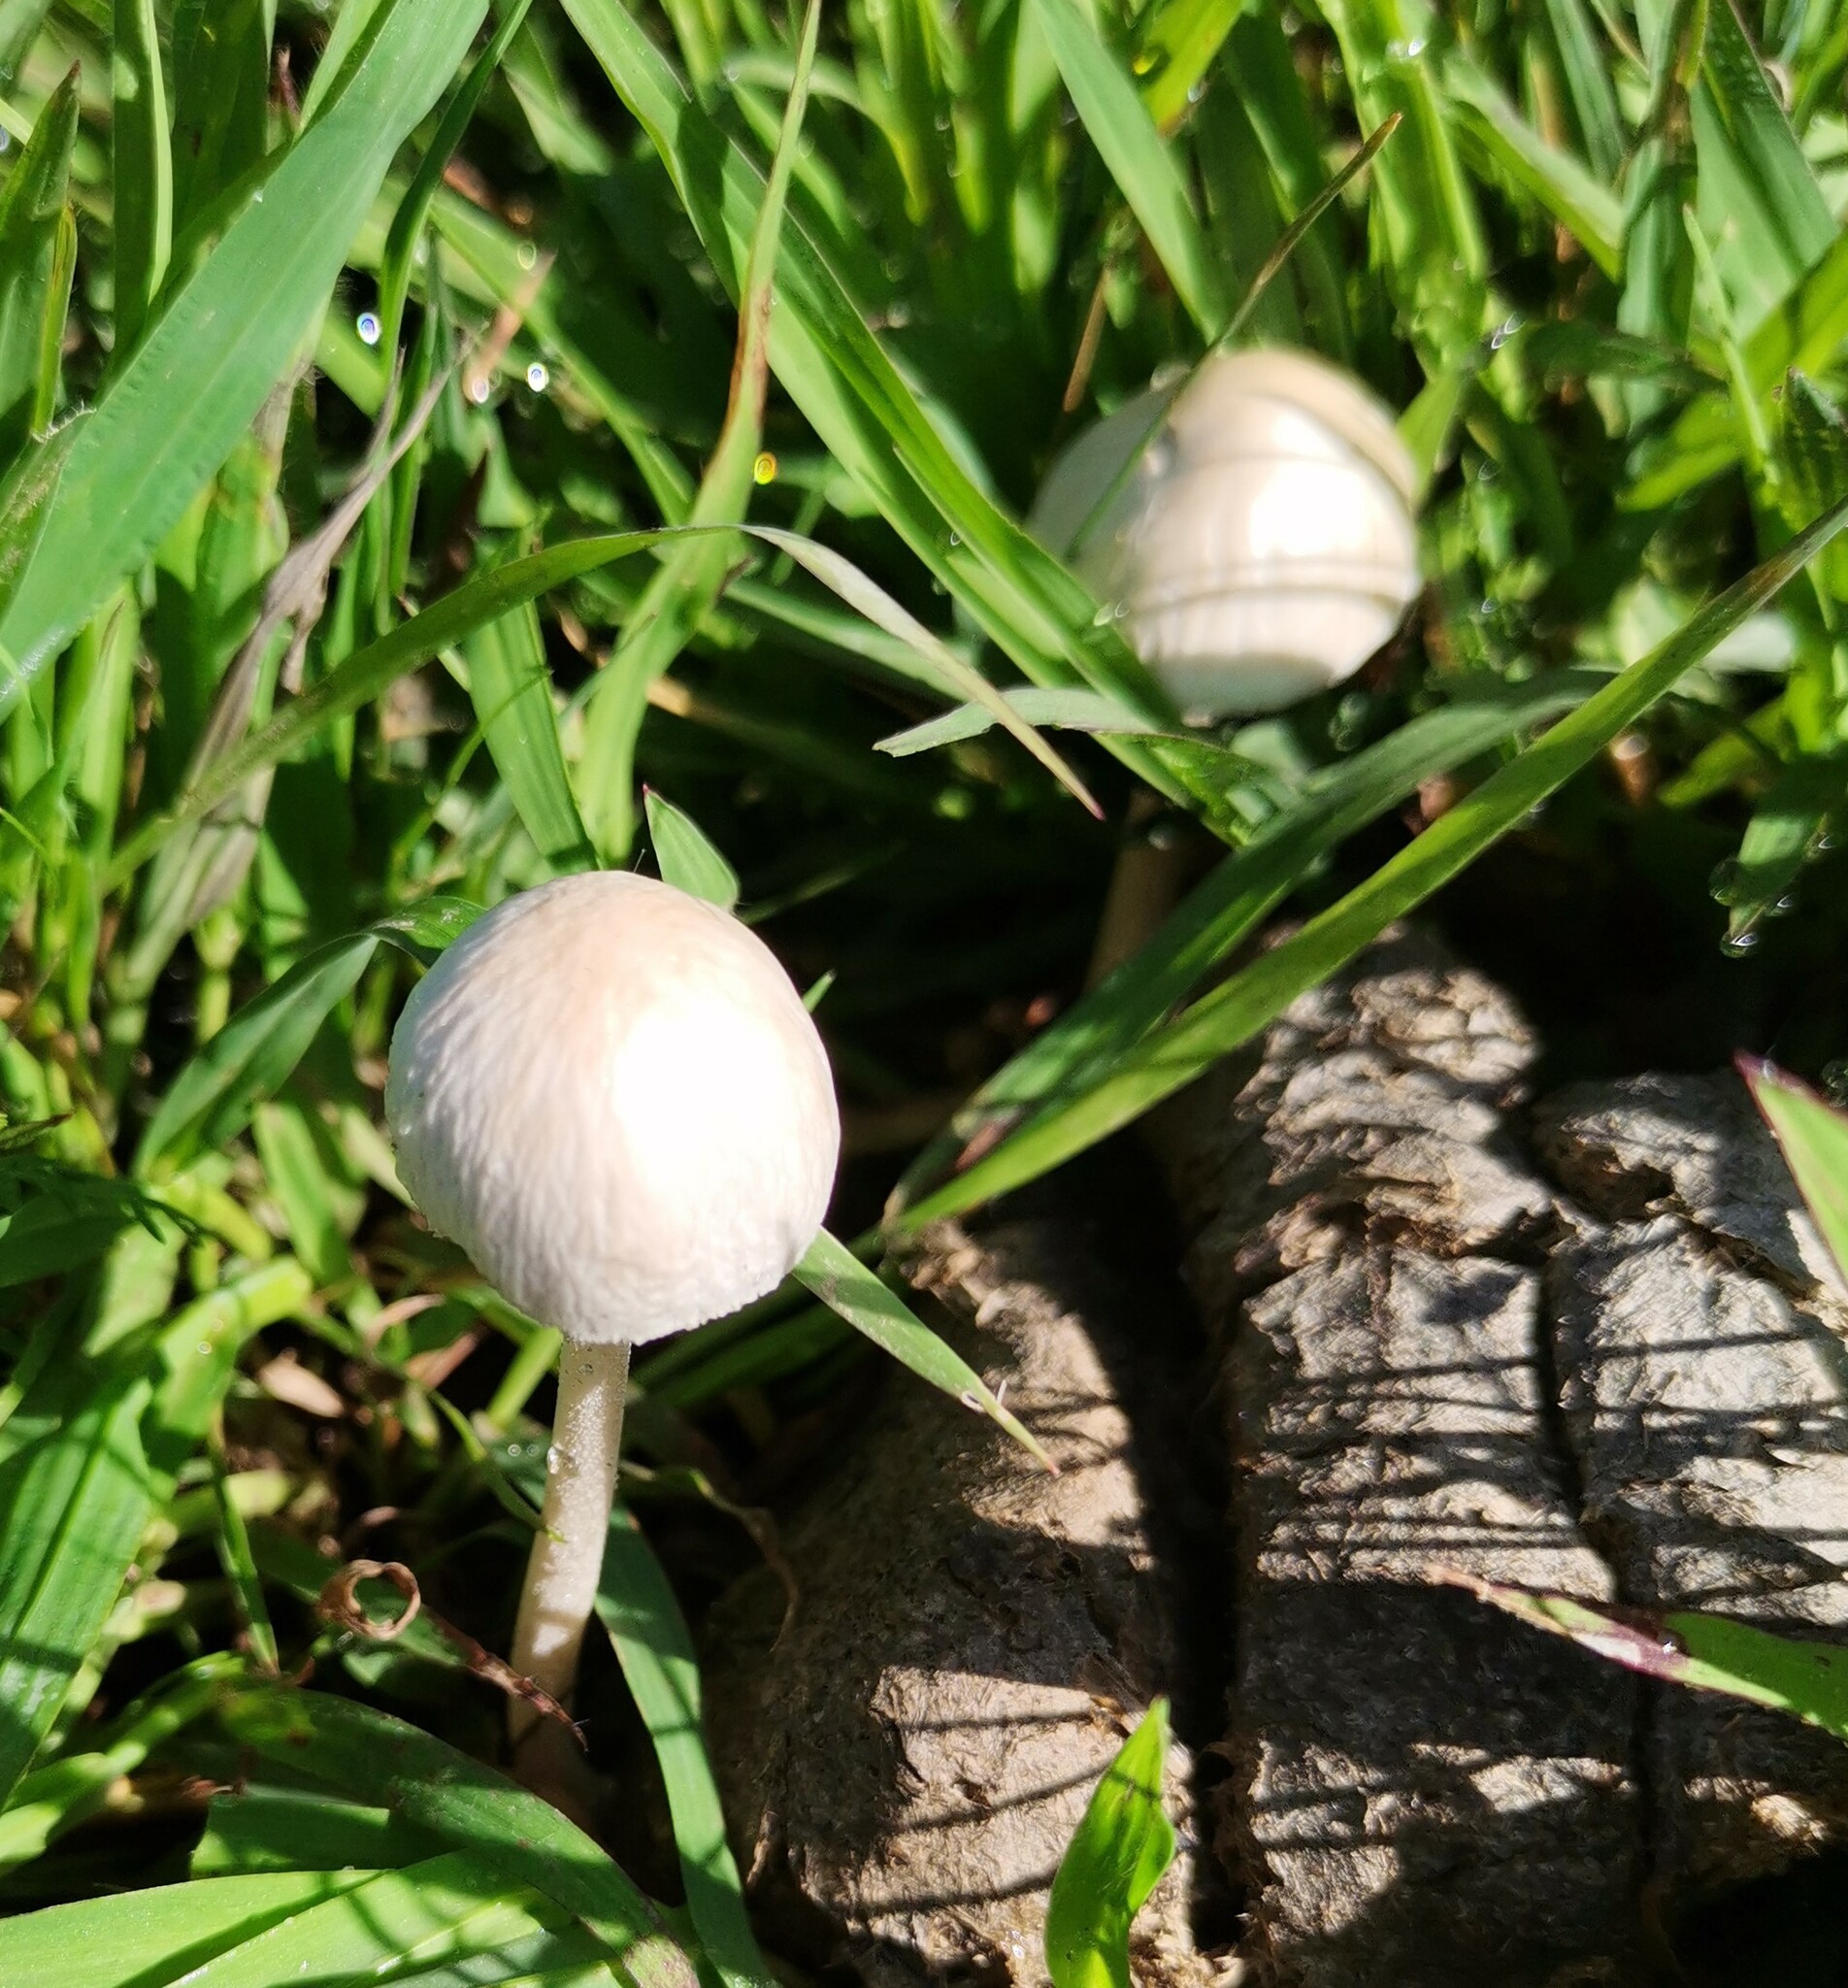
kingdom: Fungi
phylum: Basidiomycota
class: Agaricomycetes
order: Agaricales
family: Bolbitiaceae
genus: Panaeolus
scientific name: Panaeolus antillarum
